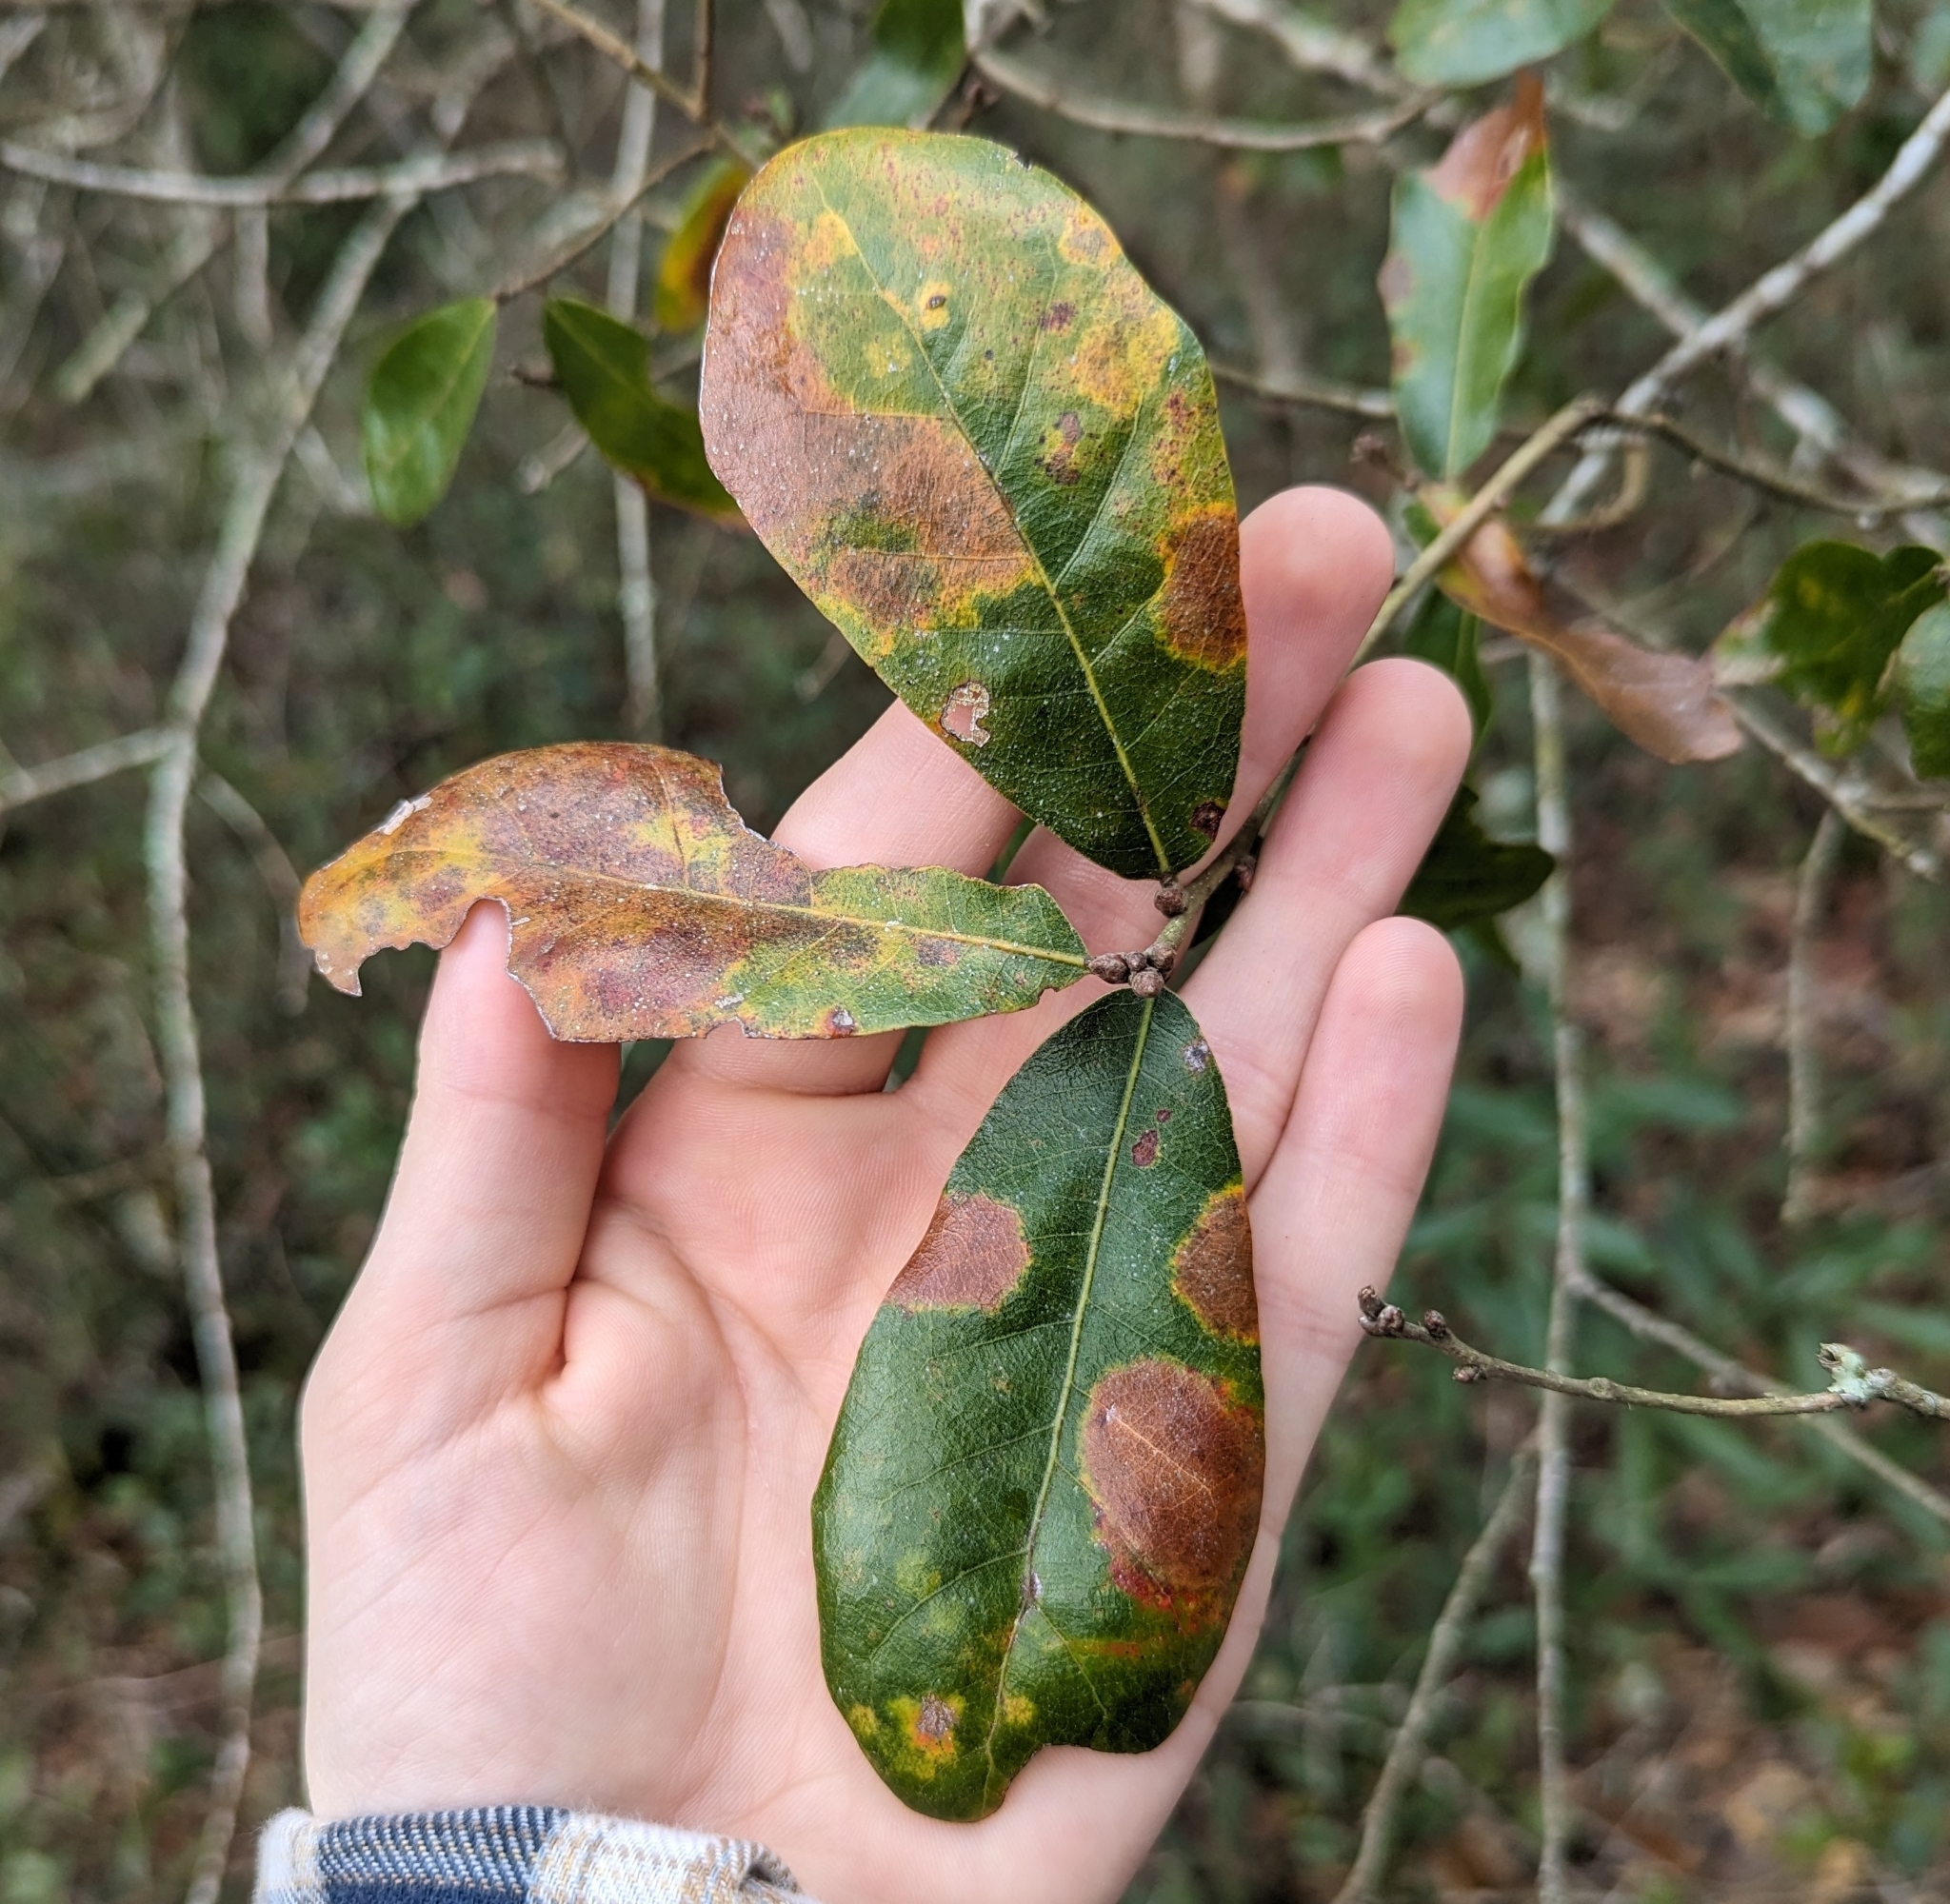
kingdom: Plantae
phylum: Tracheophyta
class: Magnoliopsida
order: Fagales
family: Fagaceae
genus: Quercus
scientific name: Quercus chapmanii
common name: Chapman oak
